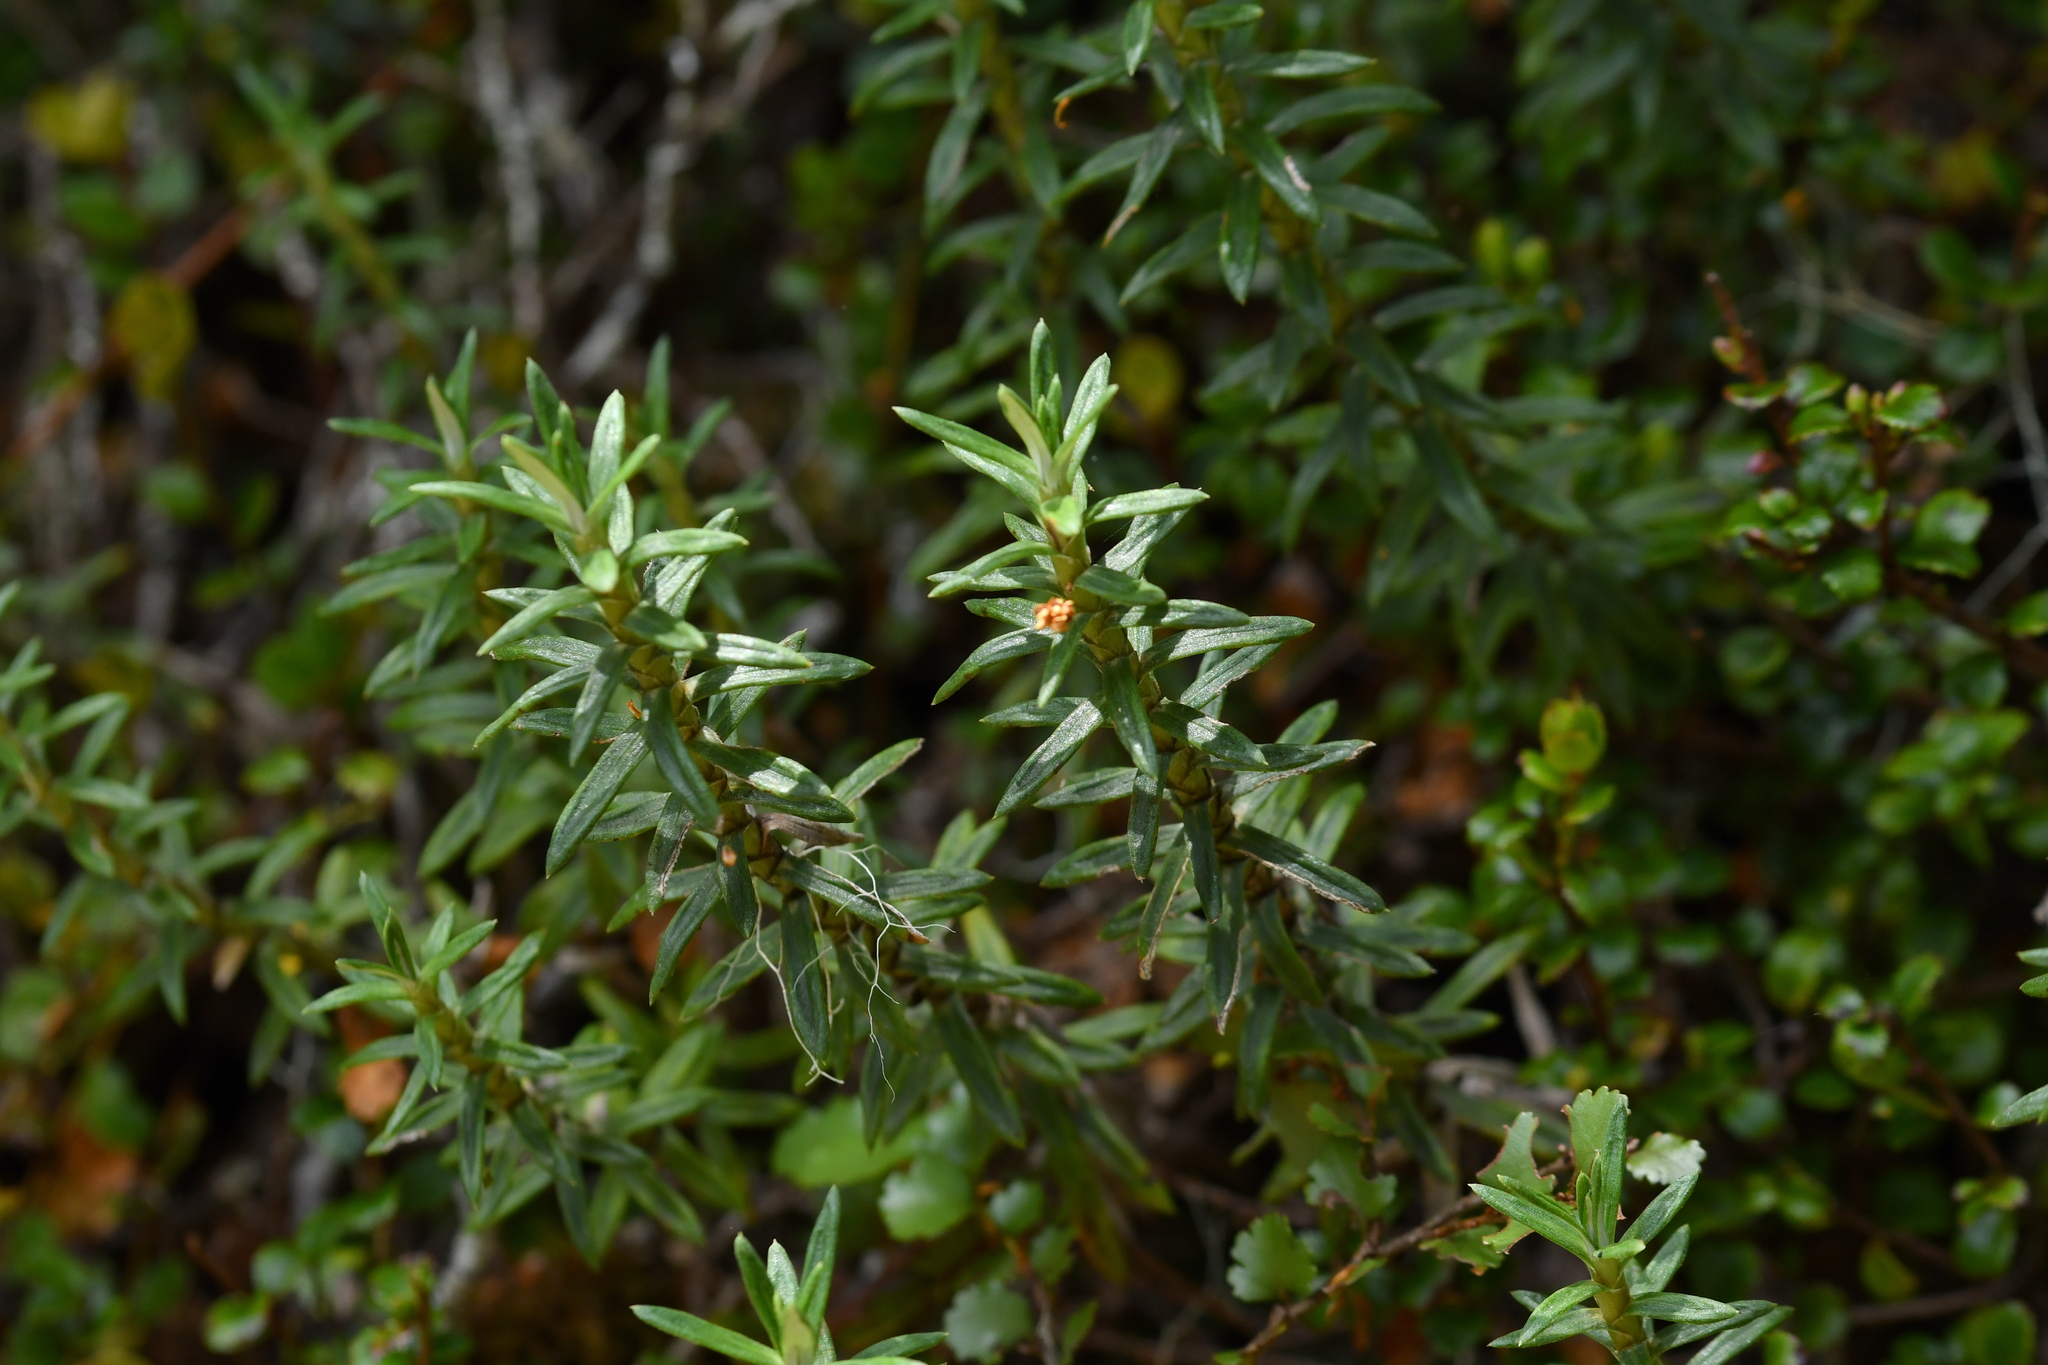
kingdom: Plantae
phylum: Tracheophyta
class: Magnoliopsida
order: Ericales
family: Ericaceae
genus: Archeria
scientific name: Archeria traversii
